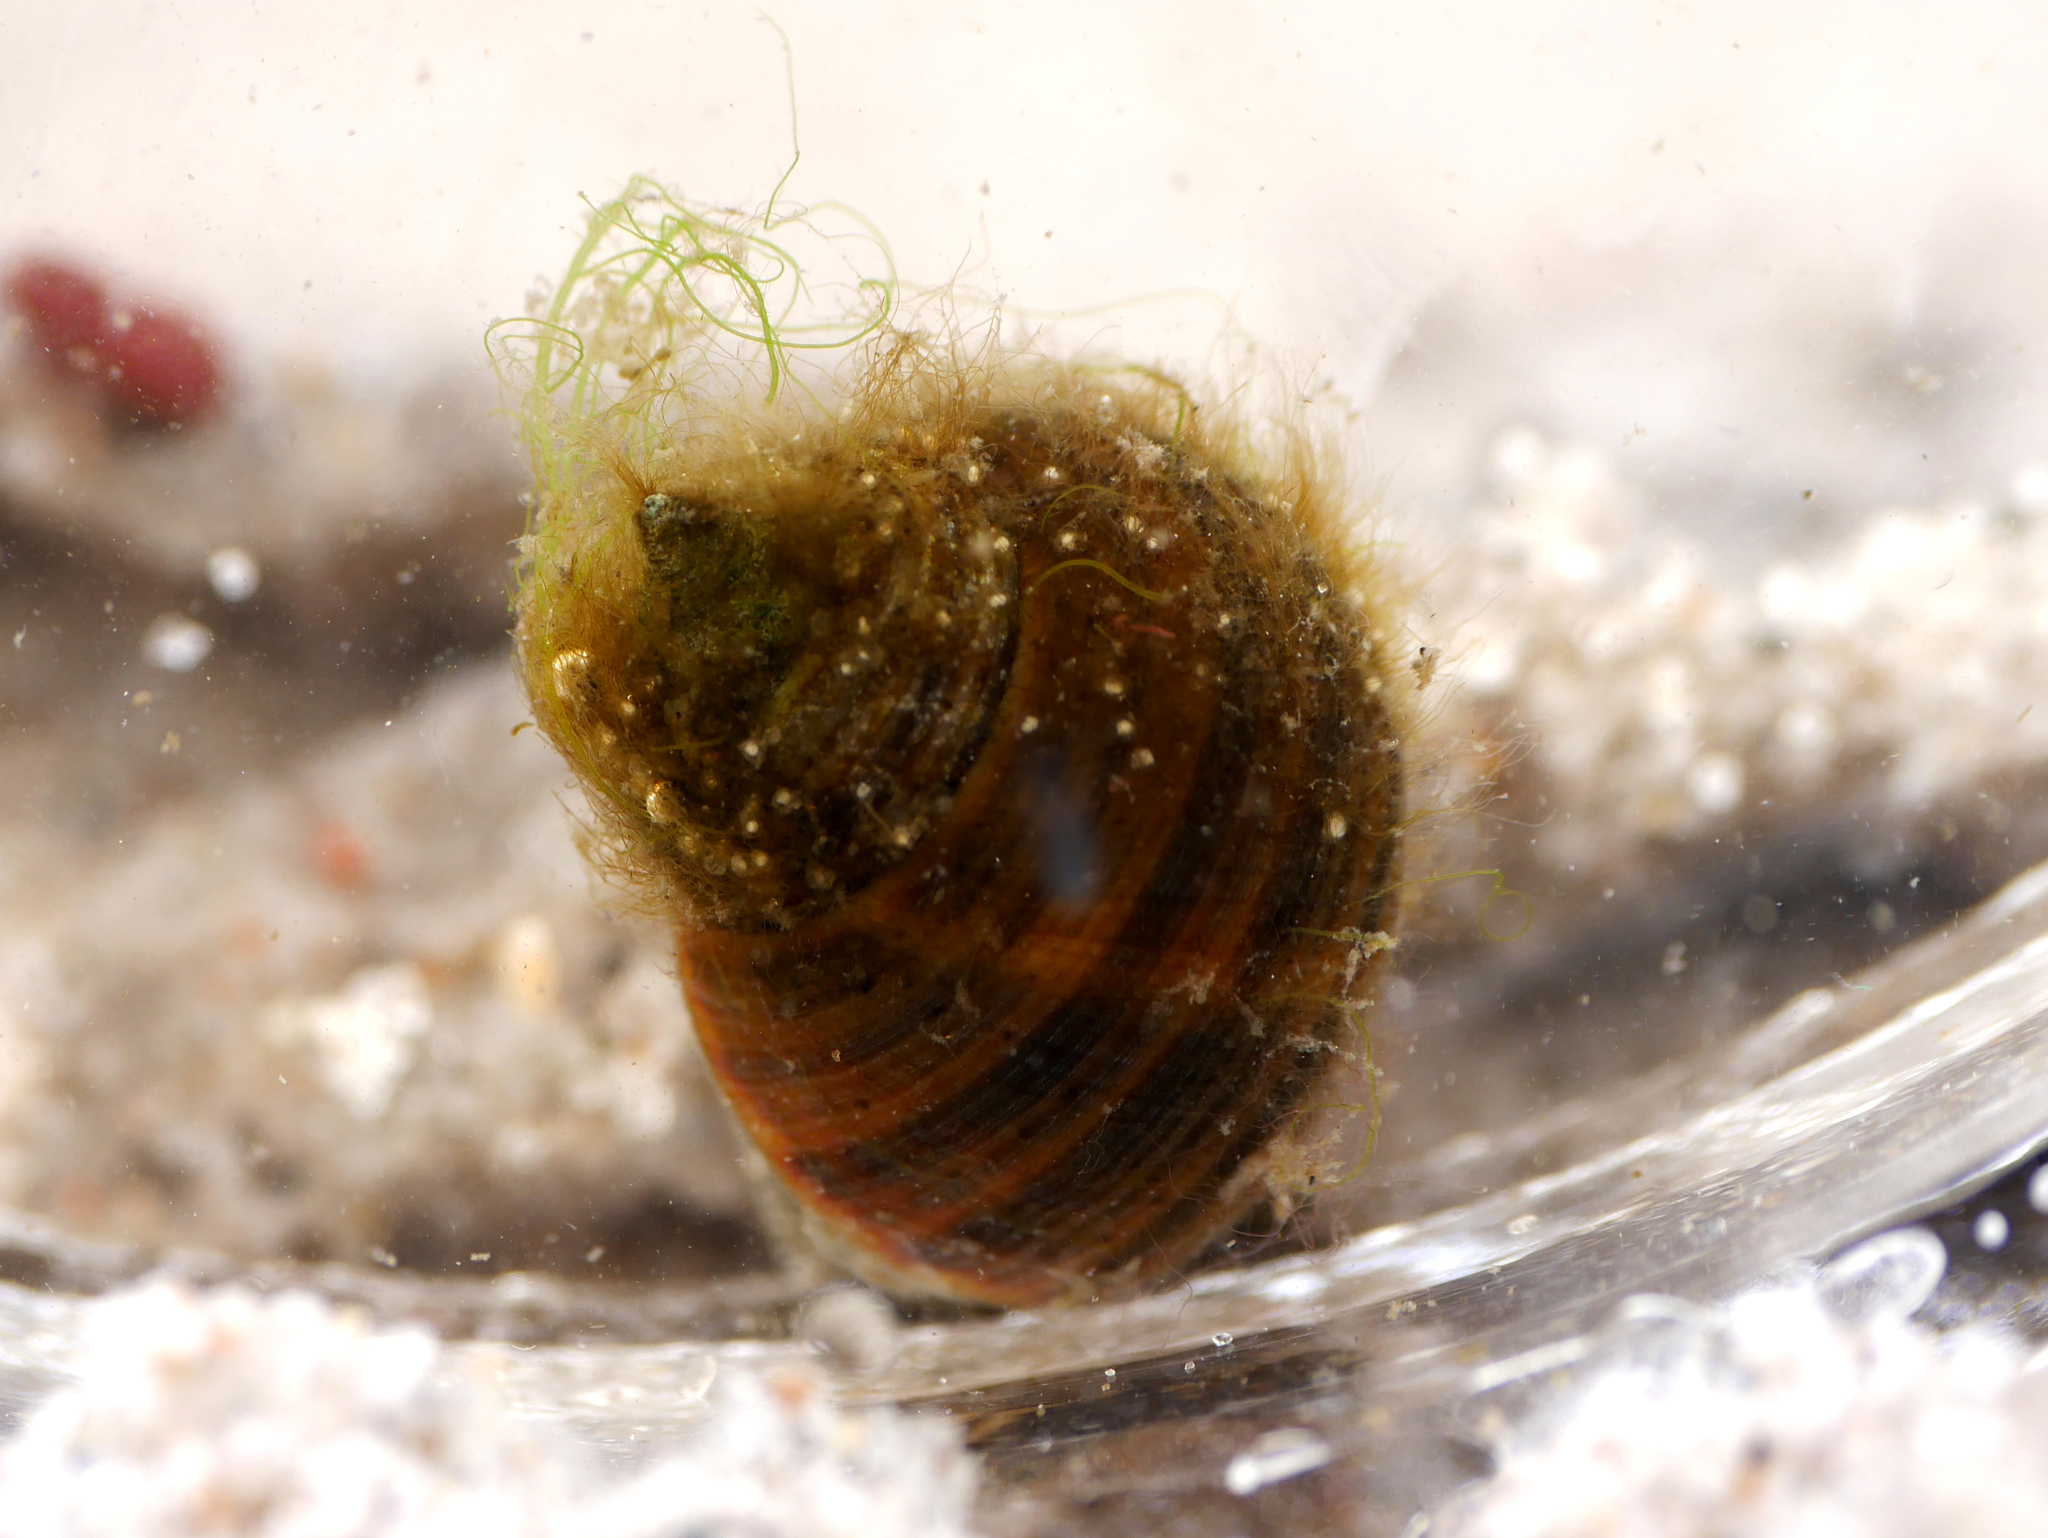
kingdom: Animalia
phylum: Mollusca
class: Gastropoda
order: Littorinimorpha
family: Littorinidae
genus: Littorina
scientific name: Littorina littorea
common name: Common periwinkle
